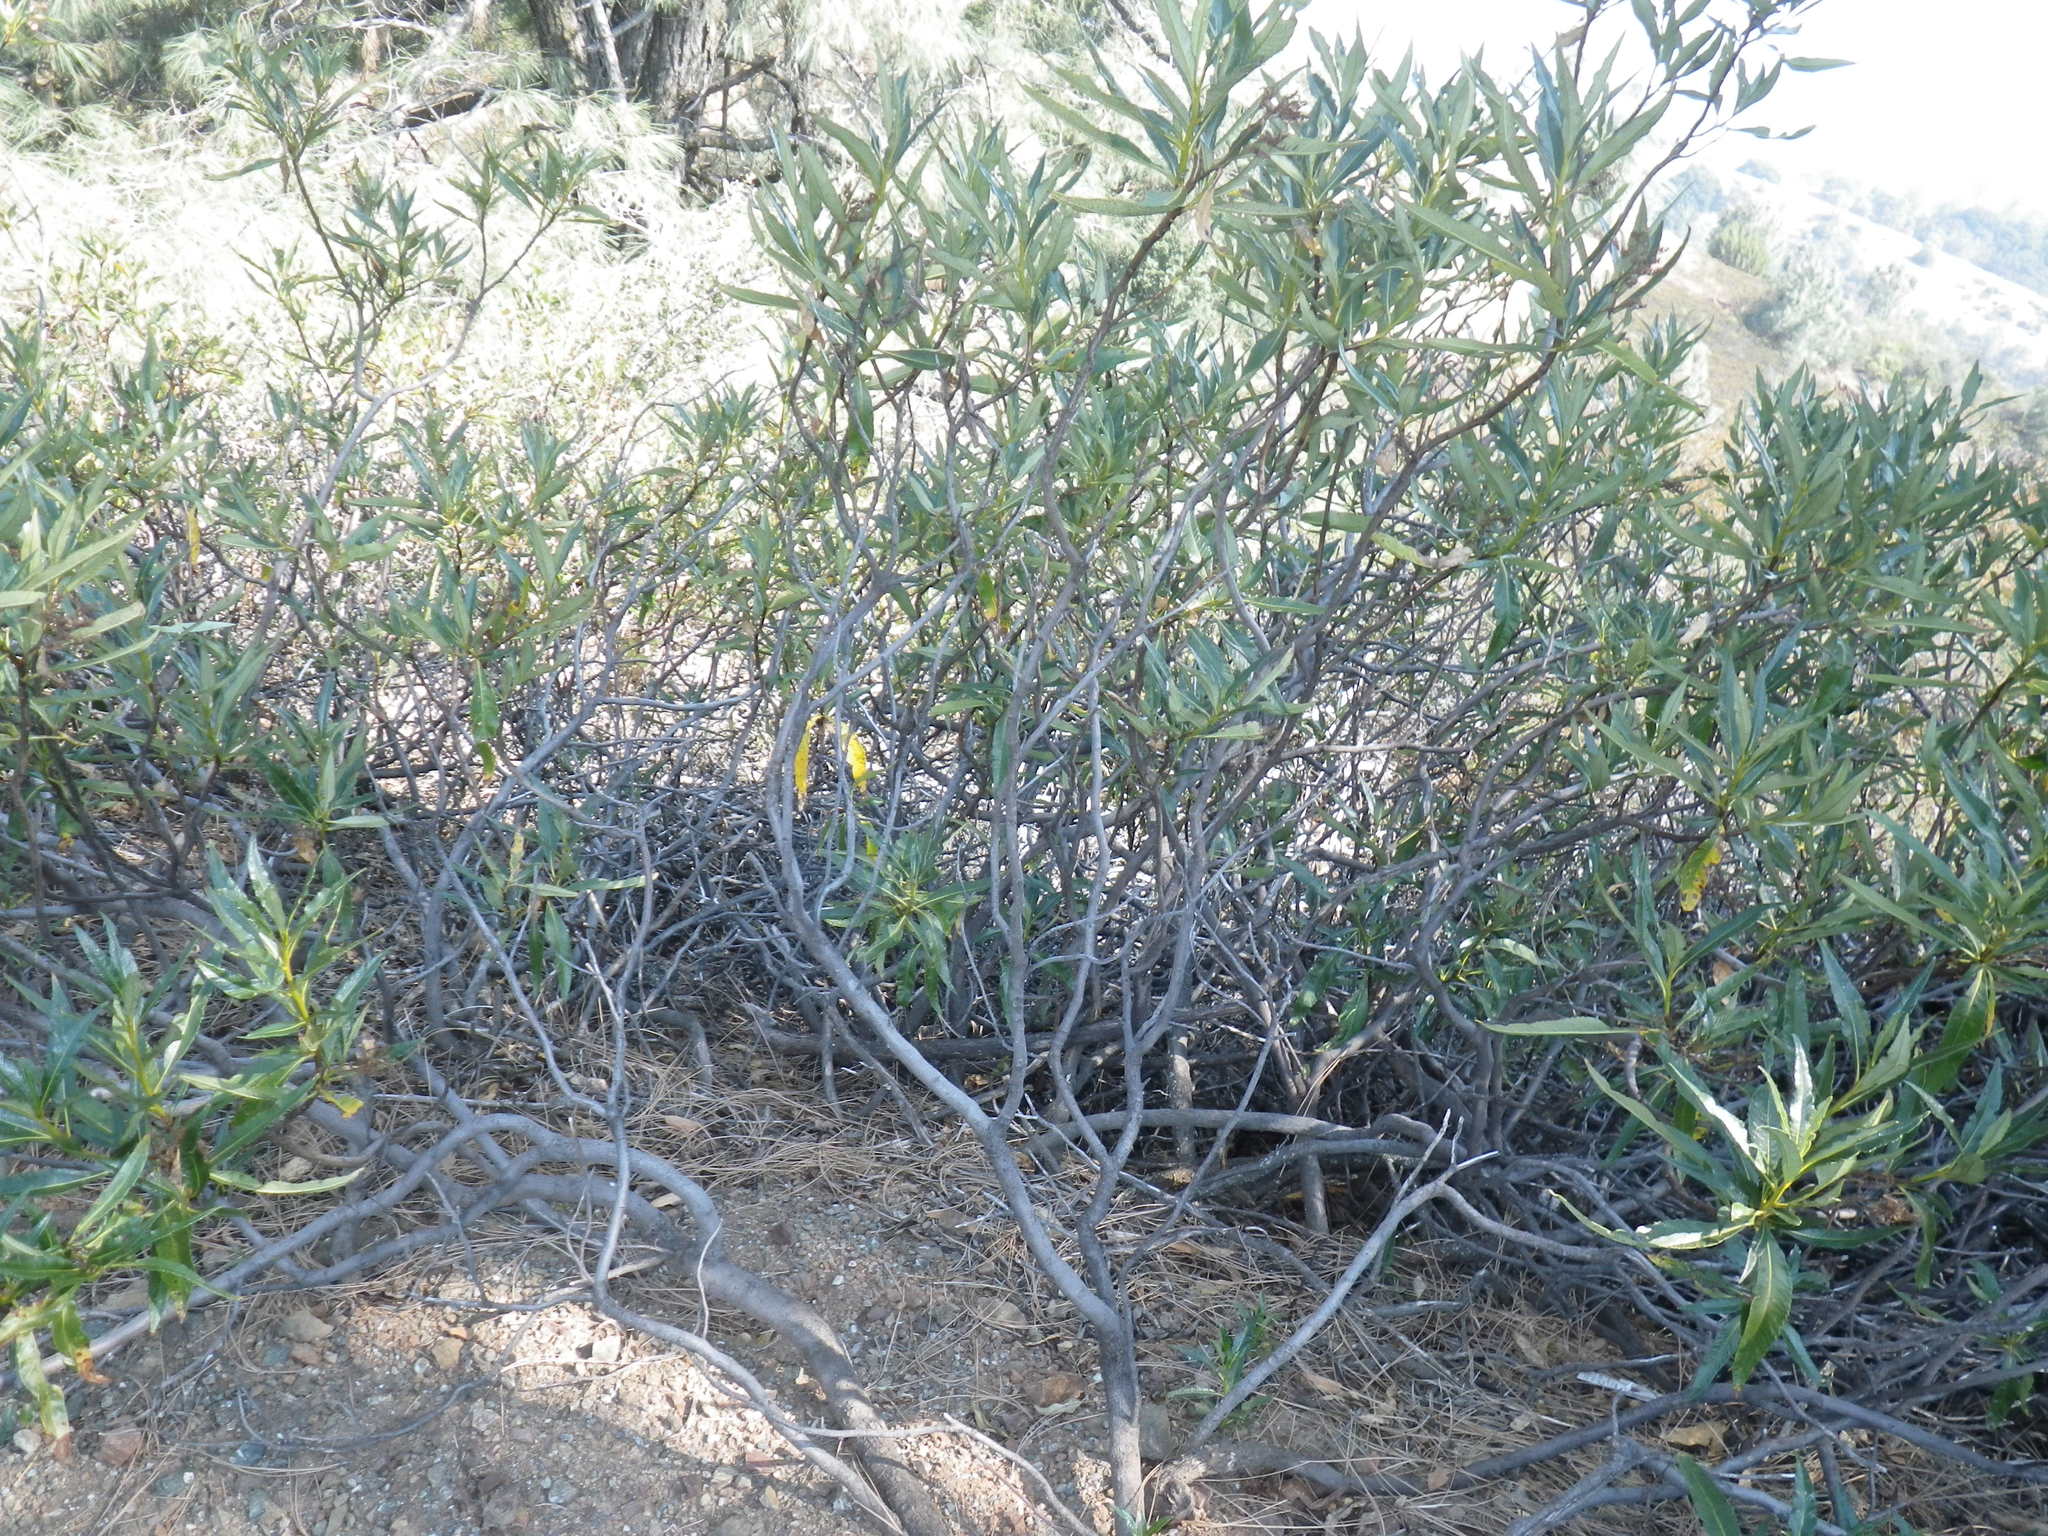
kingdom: Plantae
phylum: Tracheophyta
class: Magnoliopsida
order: Boraginales
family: Namaceae
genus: Eriodictyon
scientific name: Eriodictyon californicum
